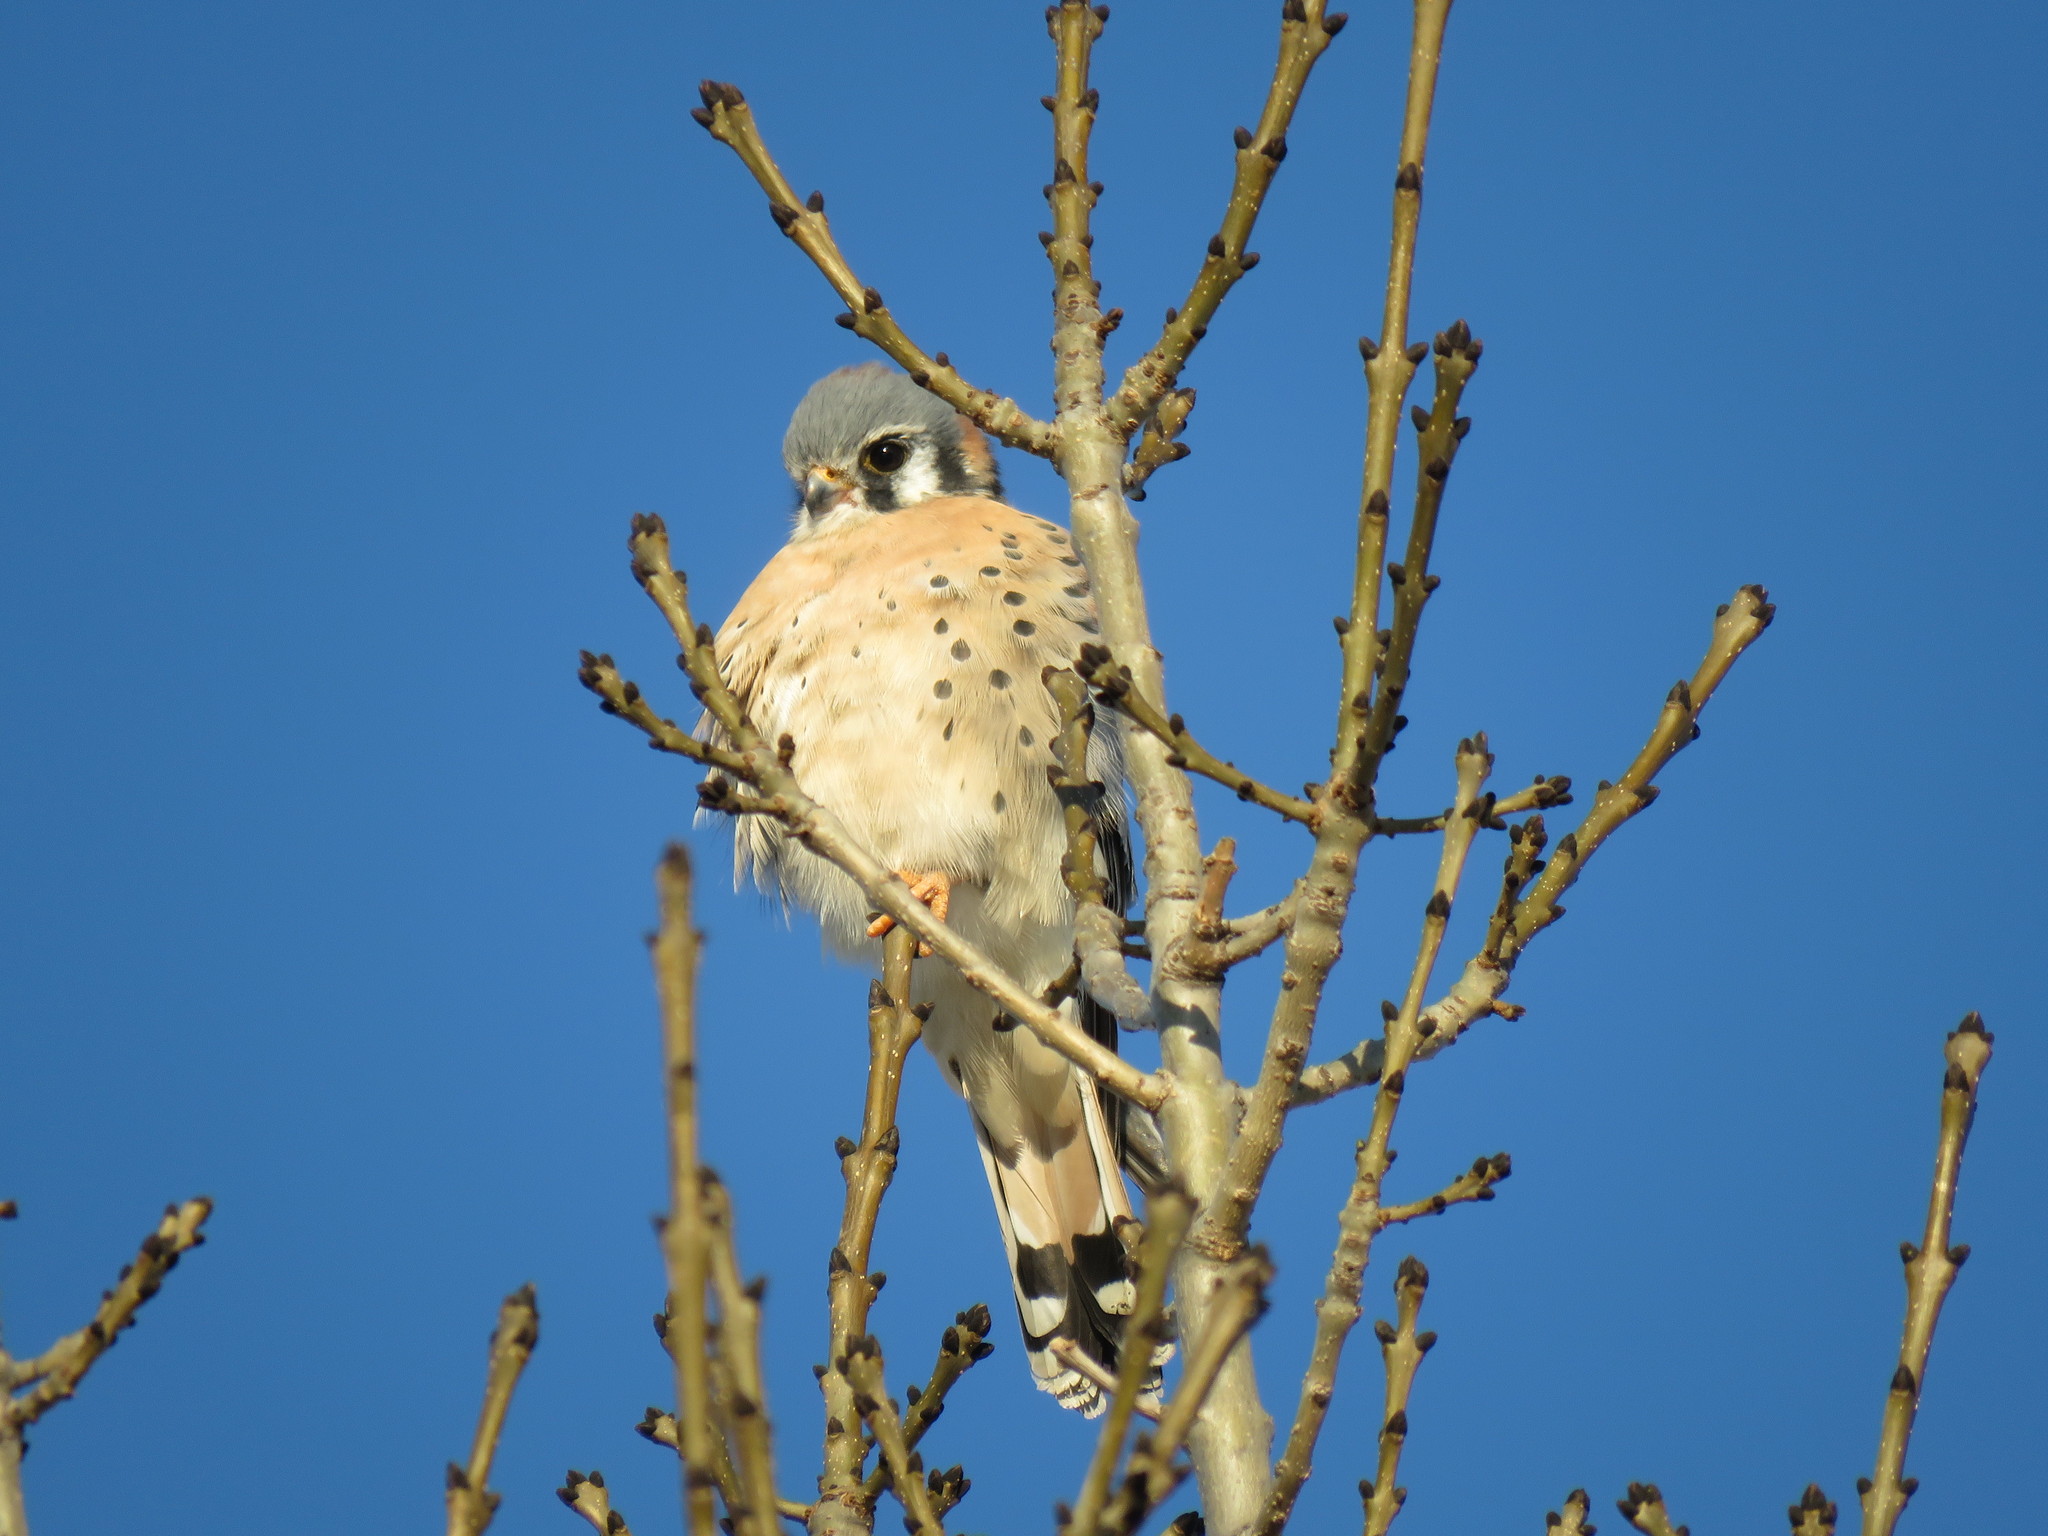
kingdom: Animalia
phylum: Chordata
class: Aves
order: Falconiformes
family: Falconidae
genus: Falco
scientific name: Falco sparverius
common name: American kestrel
